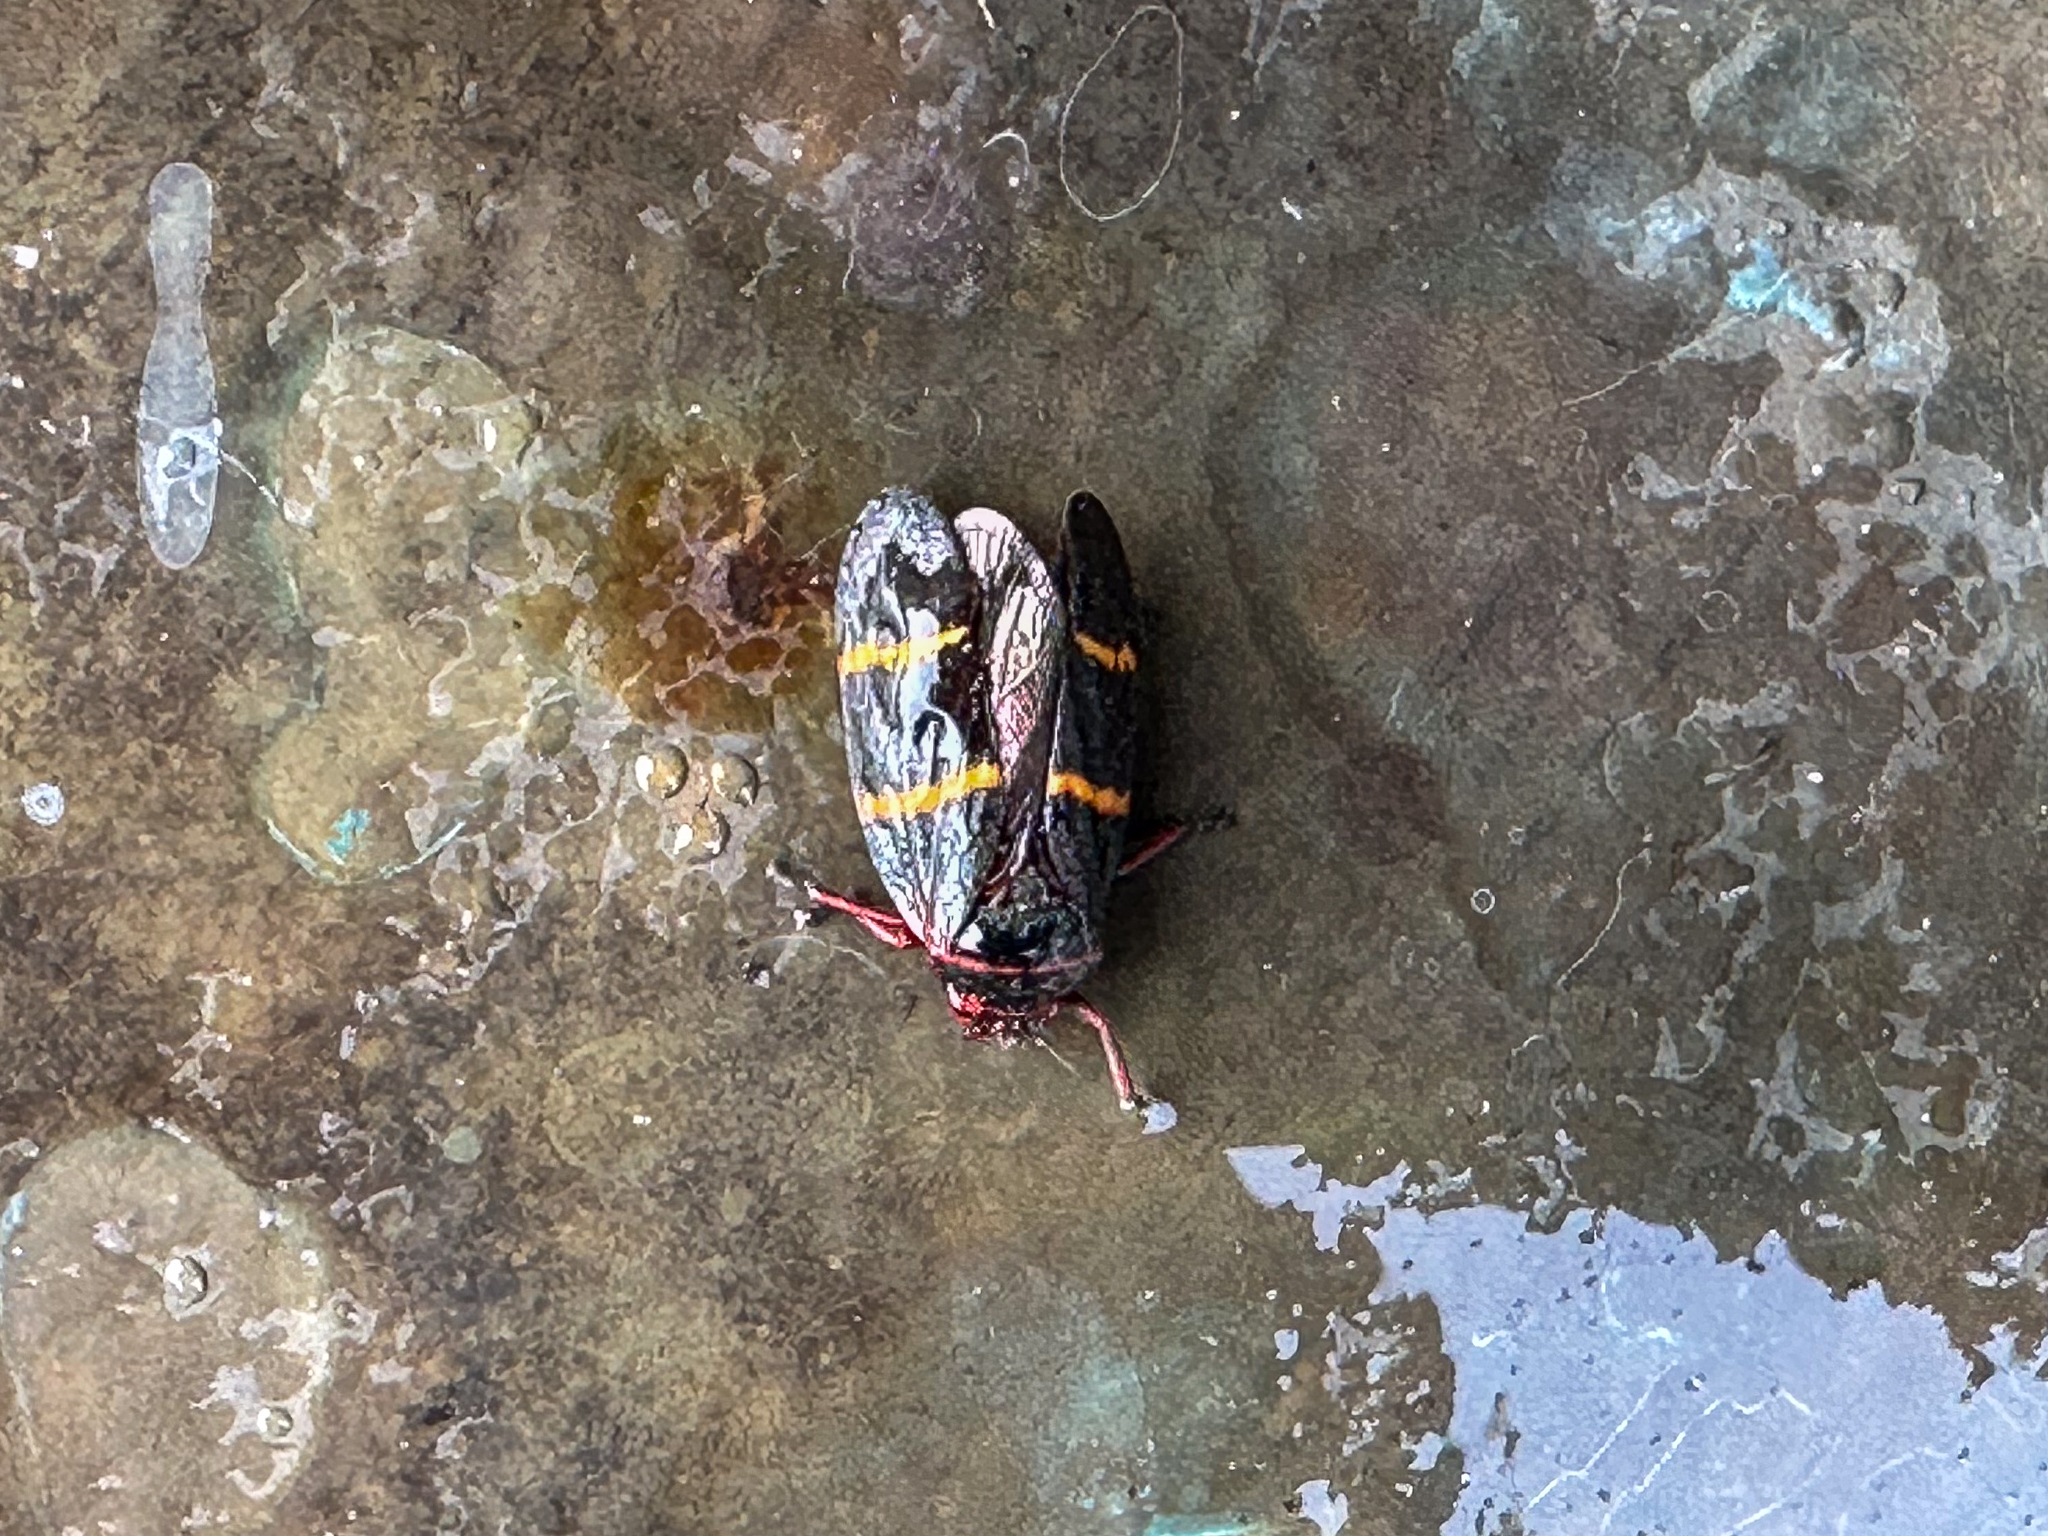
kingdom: Animalia
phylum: Arthropoda
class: Insecta
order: Hemiptera
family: Cercopidae
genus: Prosapia
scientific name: Prosapia bicincta
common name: Twolined spittlebug
